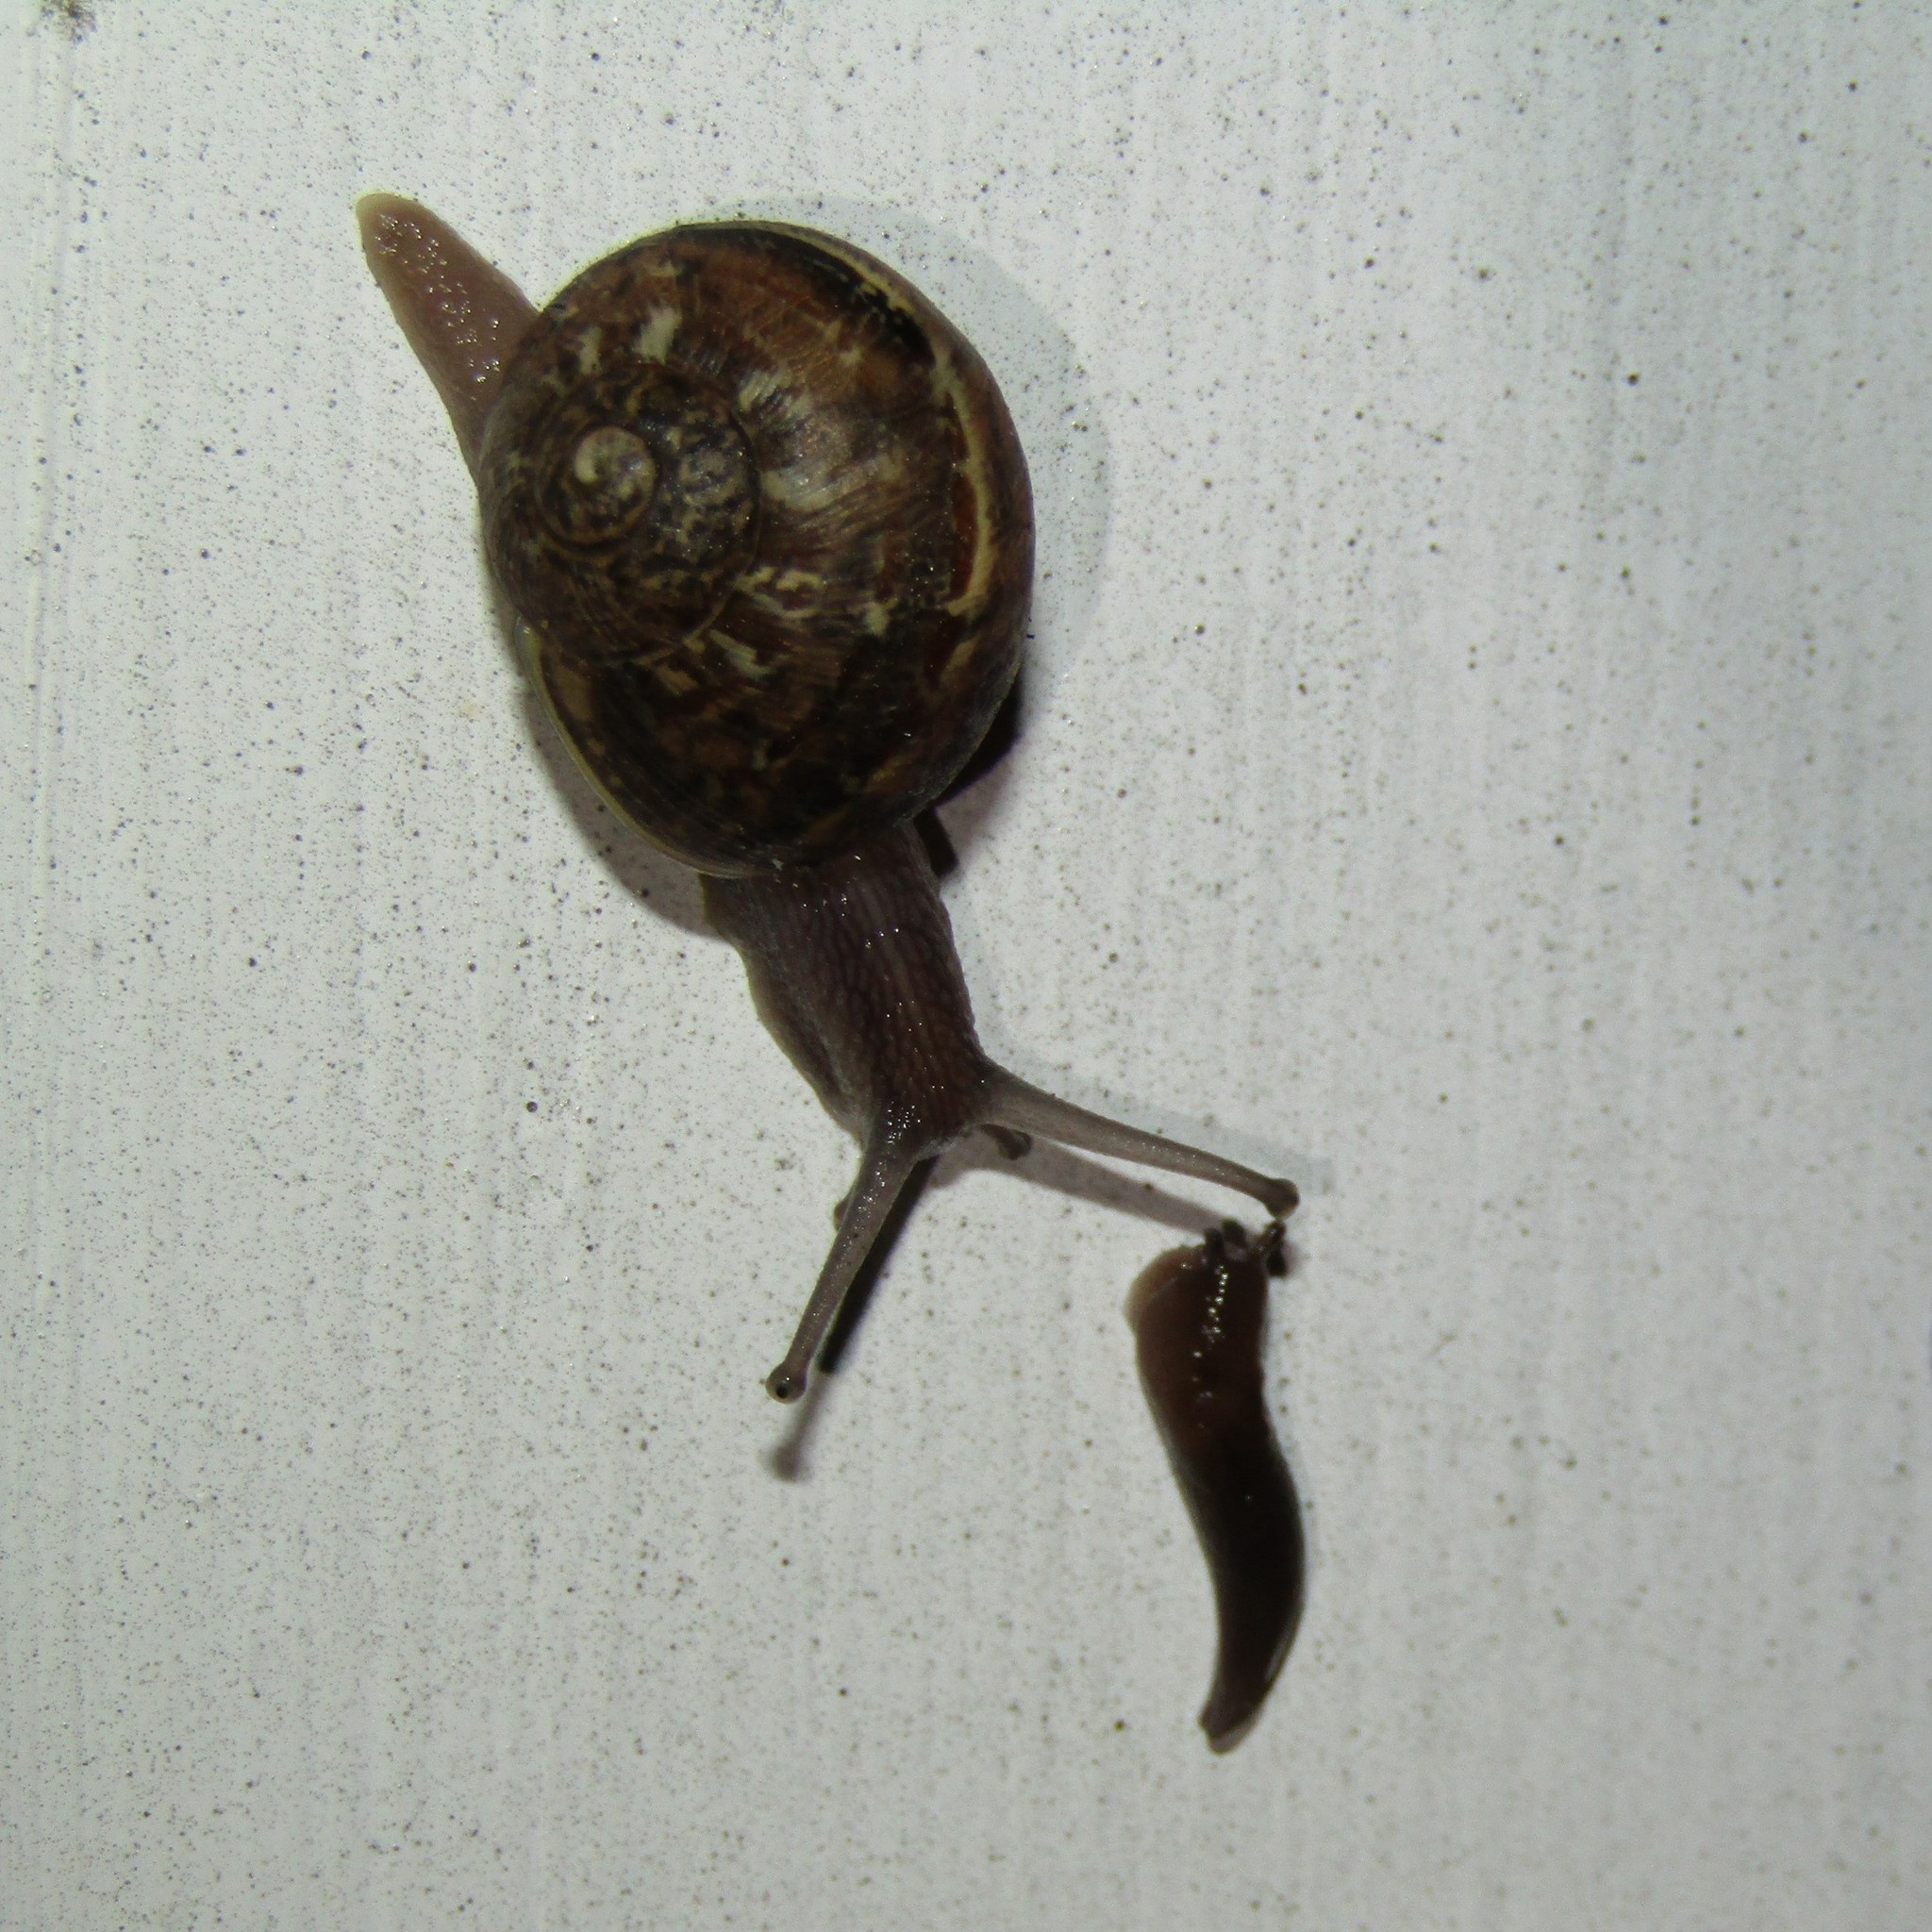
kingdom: Animalia
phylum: Mollusca
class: Gastropoda
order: Stylommatophora
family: Helicidae
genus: Cornu
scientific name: Cornu aspersum
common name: Brown garden snail
